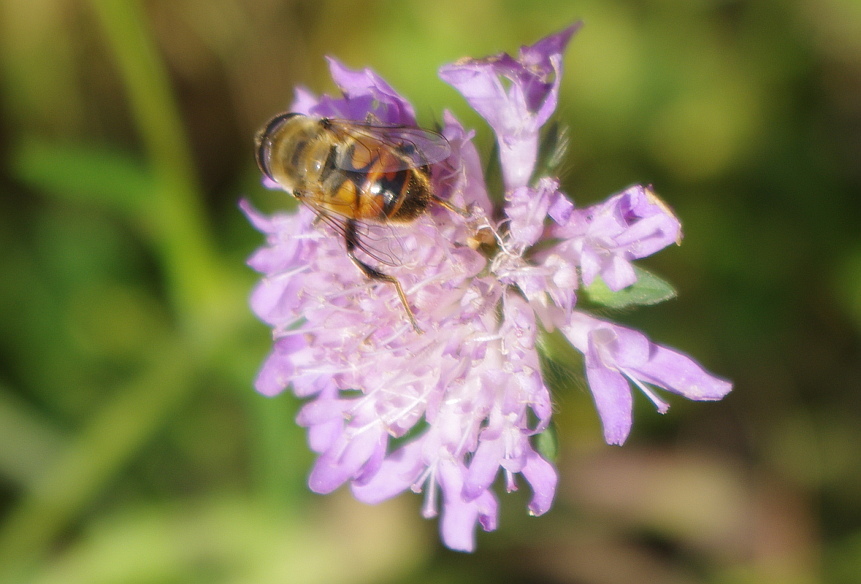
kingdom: Animalia
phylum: Arthropoda
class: Insecta
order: Diptera
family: Syrphidae
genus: Eristalis
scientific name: Eristalis tenax
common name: Drone fly
